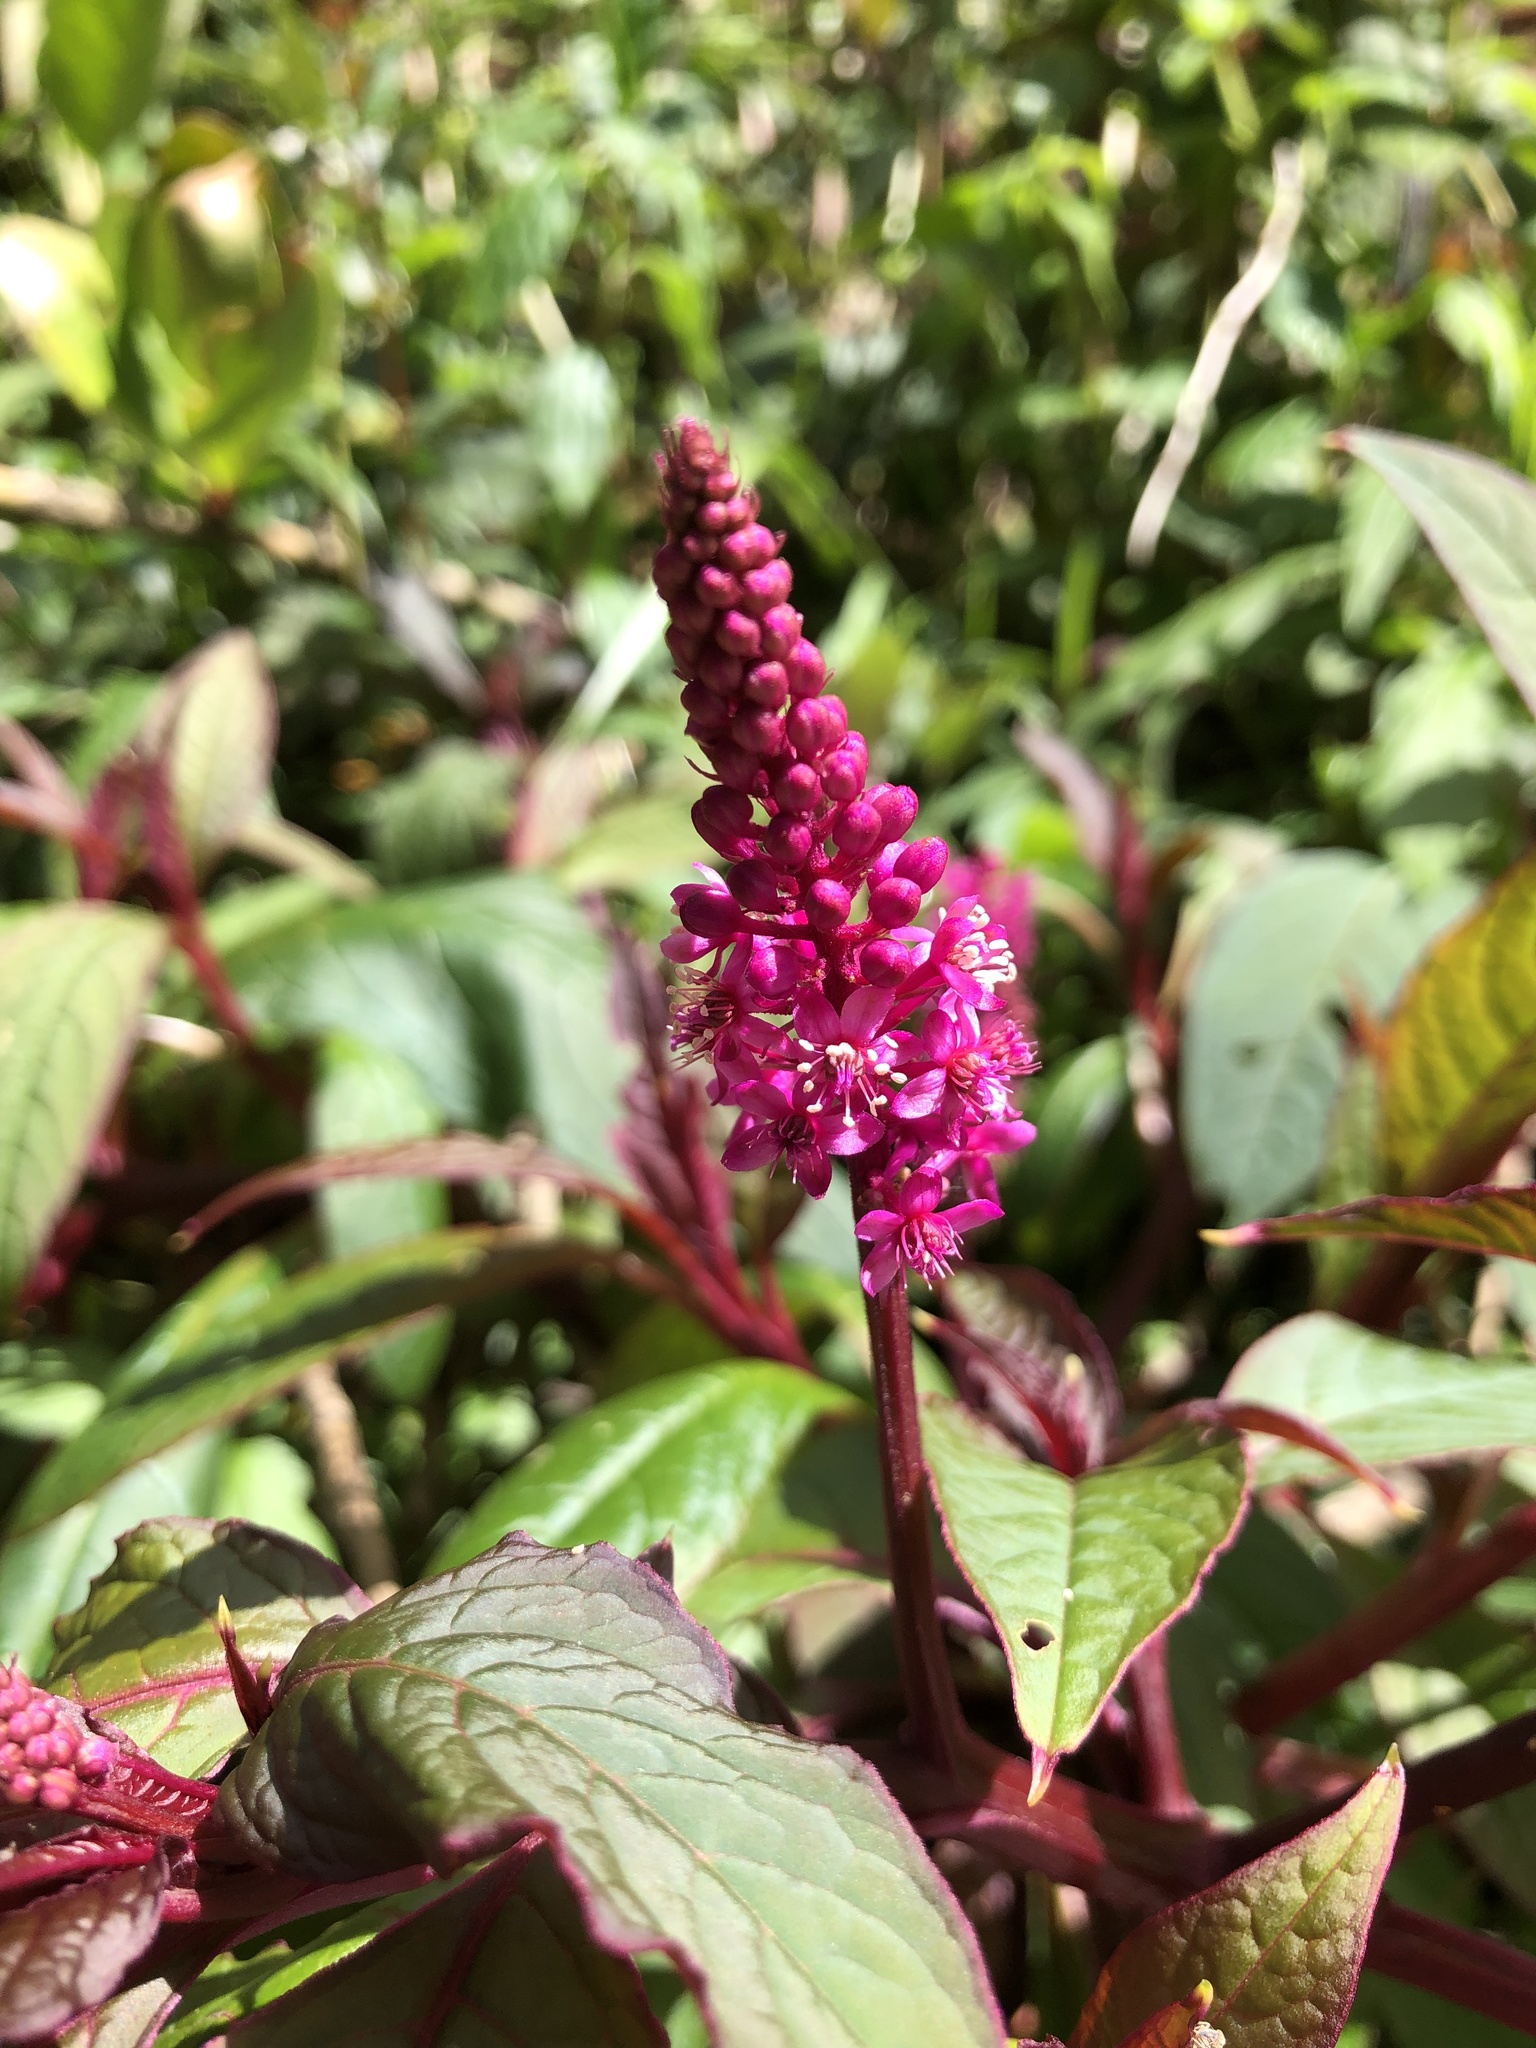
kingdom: Plantae
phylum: Tracheophyta
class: Magnoliopsida
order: Caryophyllales
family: Phytolaccaceae
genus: Phytolacca
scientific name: Phytolacca rugosa
